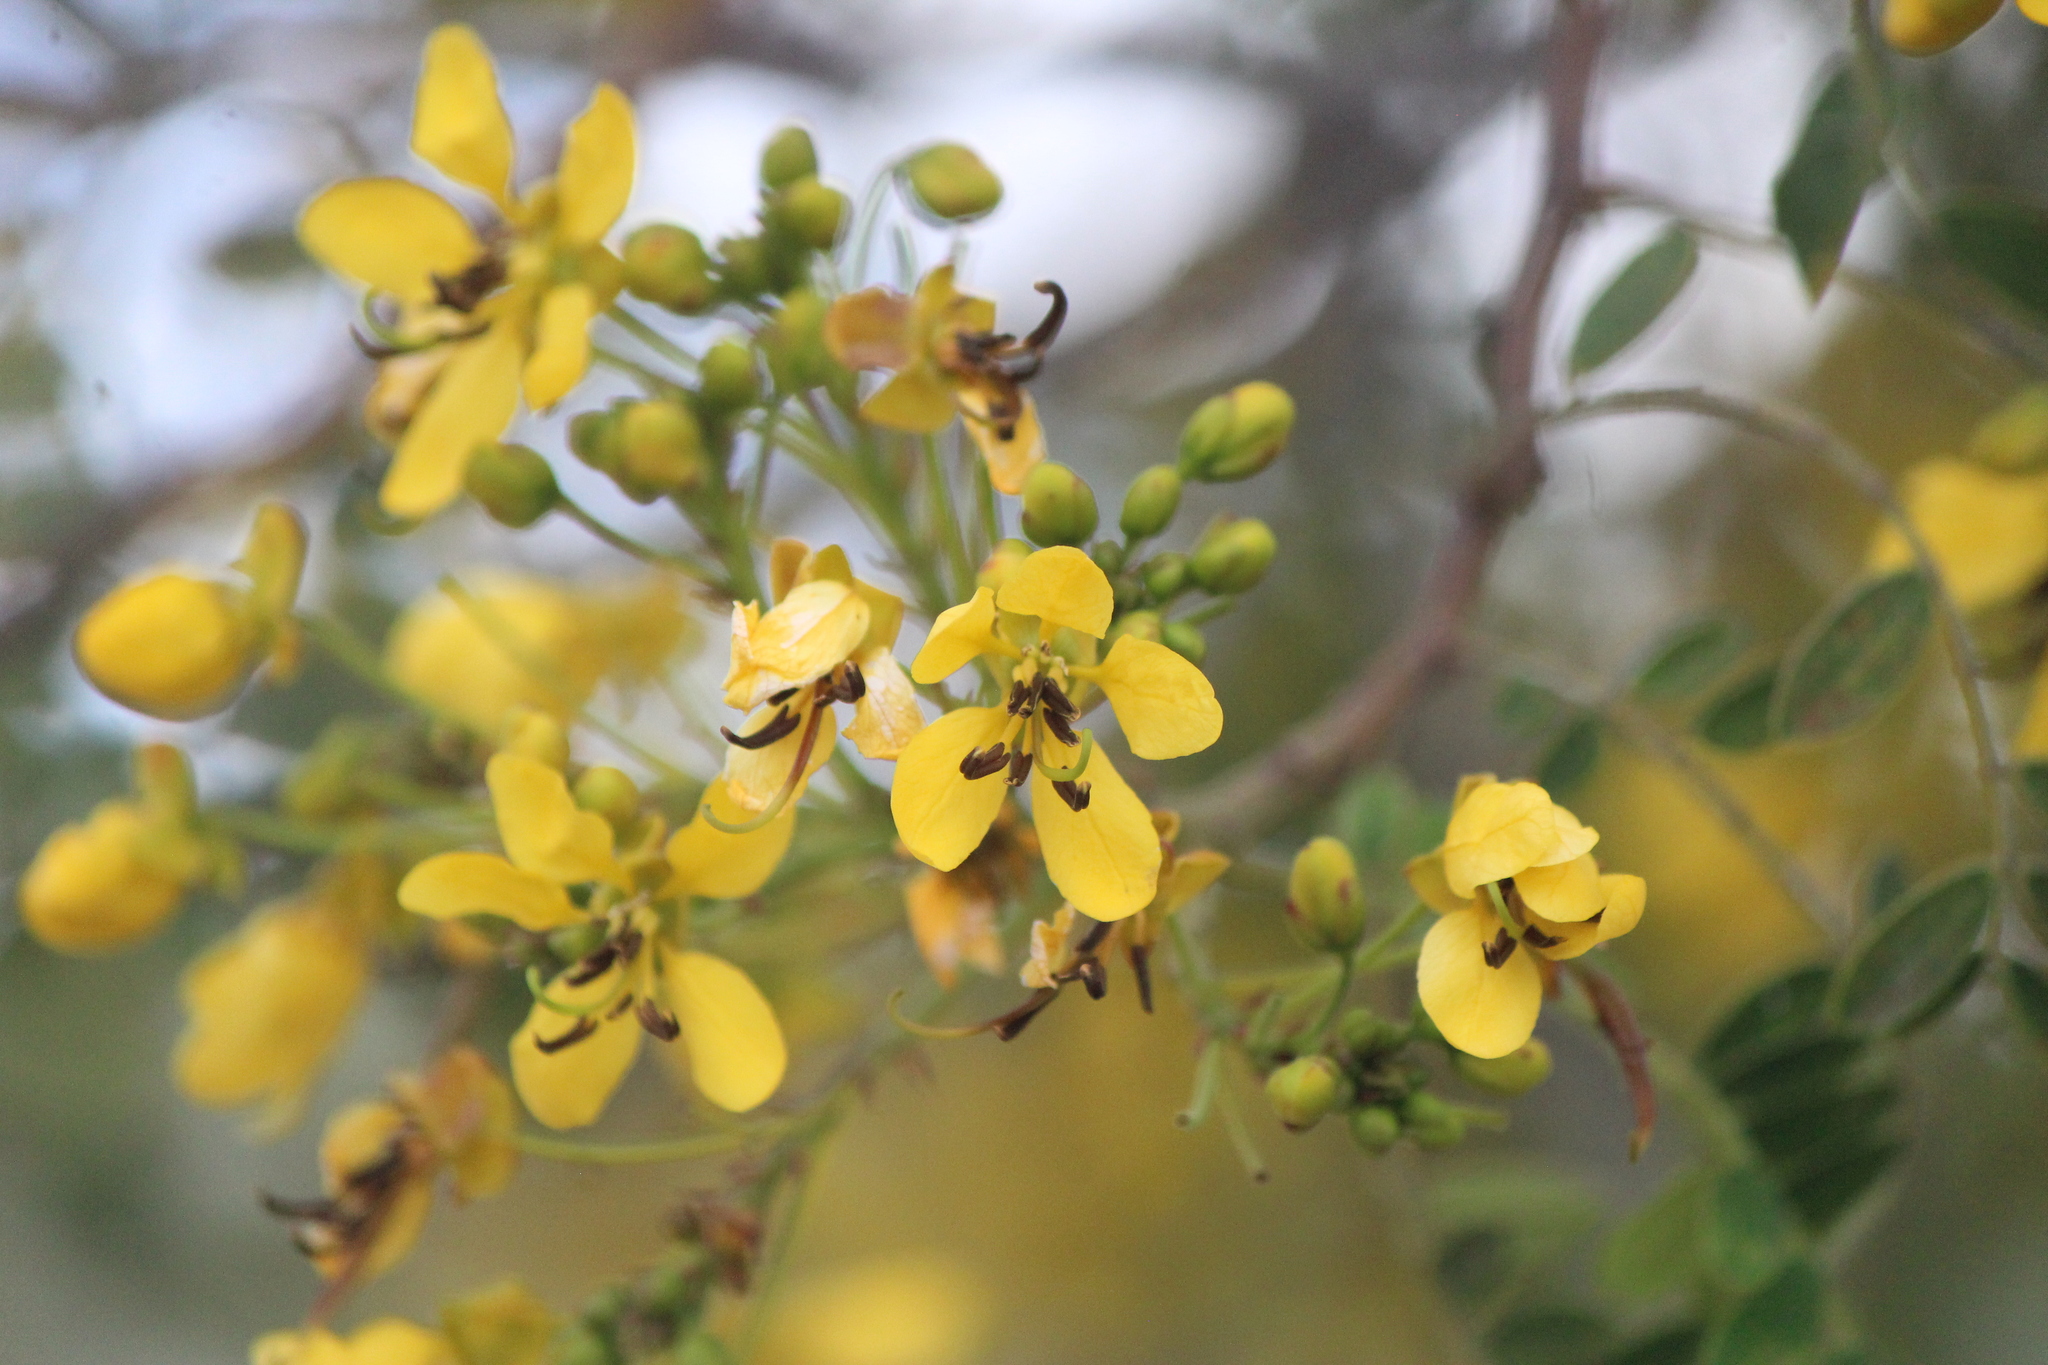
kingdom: Plantae
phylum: Tracheophyta
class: Magnoliopsida
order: Fabales
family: Fabaceae
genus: Senna
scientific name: Senna polyantha
